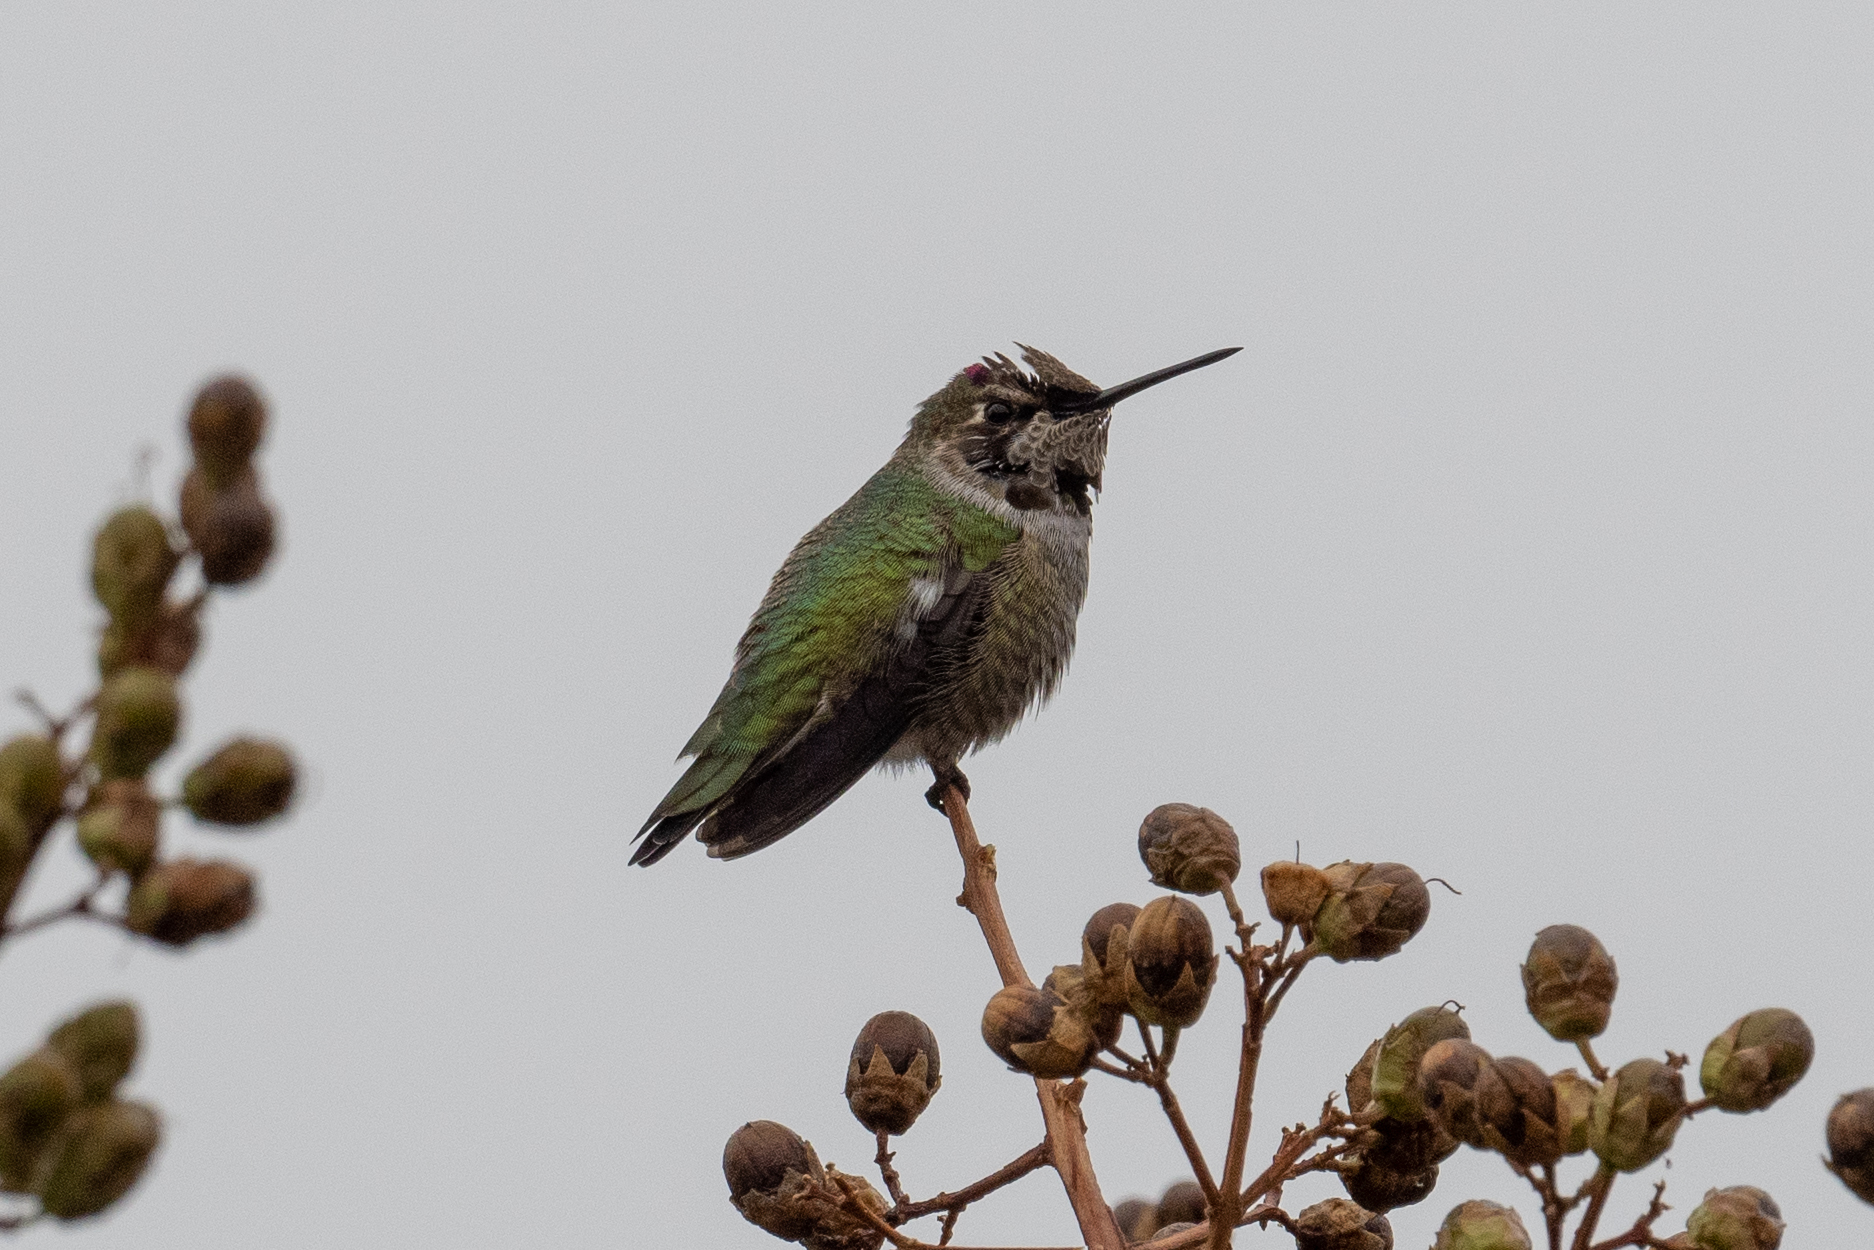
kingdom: Animalia
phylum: Chordata
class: Aves
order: Apodiformes
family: Trochilidae
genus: Calypte
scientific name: Calypte anna
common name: Anna's hummingbird
